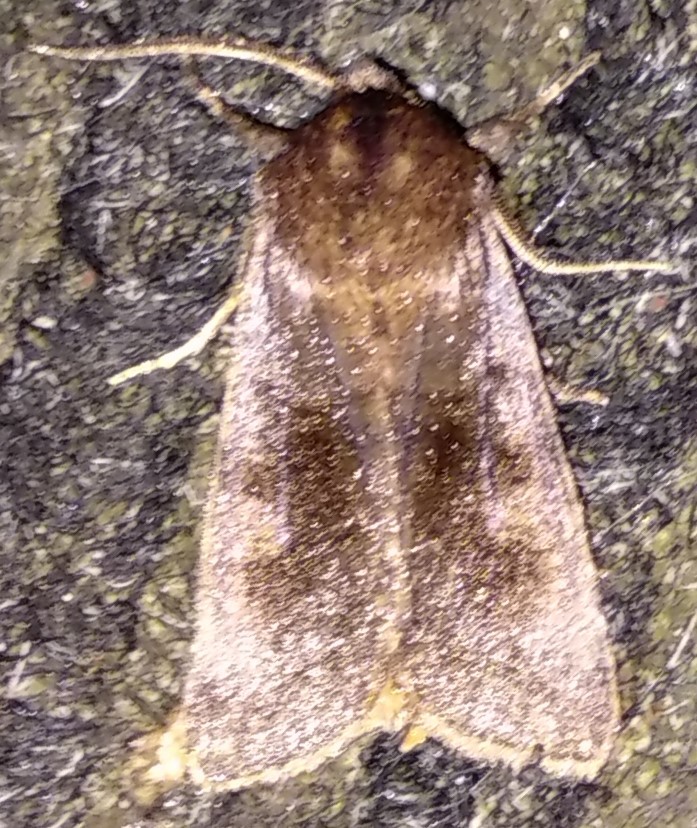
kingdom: Animalia
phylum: Arthropoda
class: Insecta
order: Lepidoptera
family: Noctuidae
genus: Nephelodes
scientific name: Nephelodes minians
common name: Bronzed cutworm
